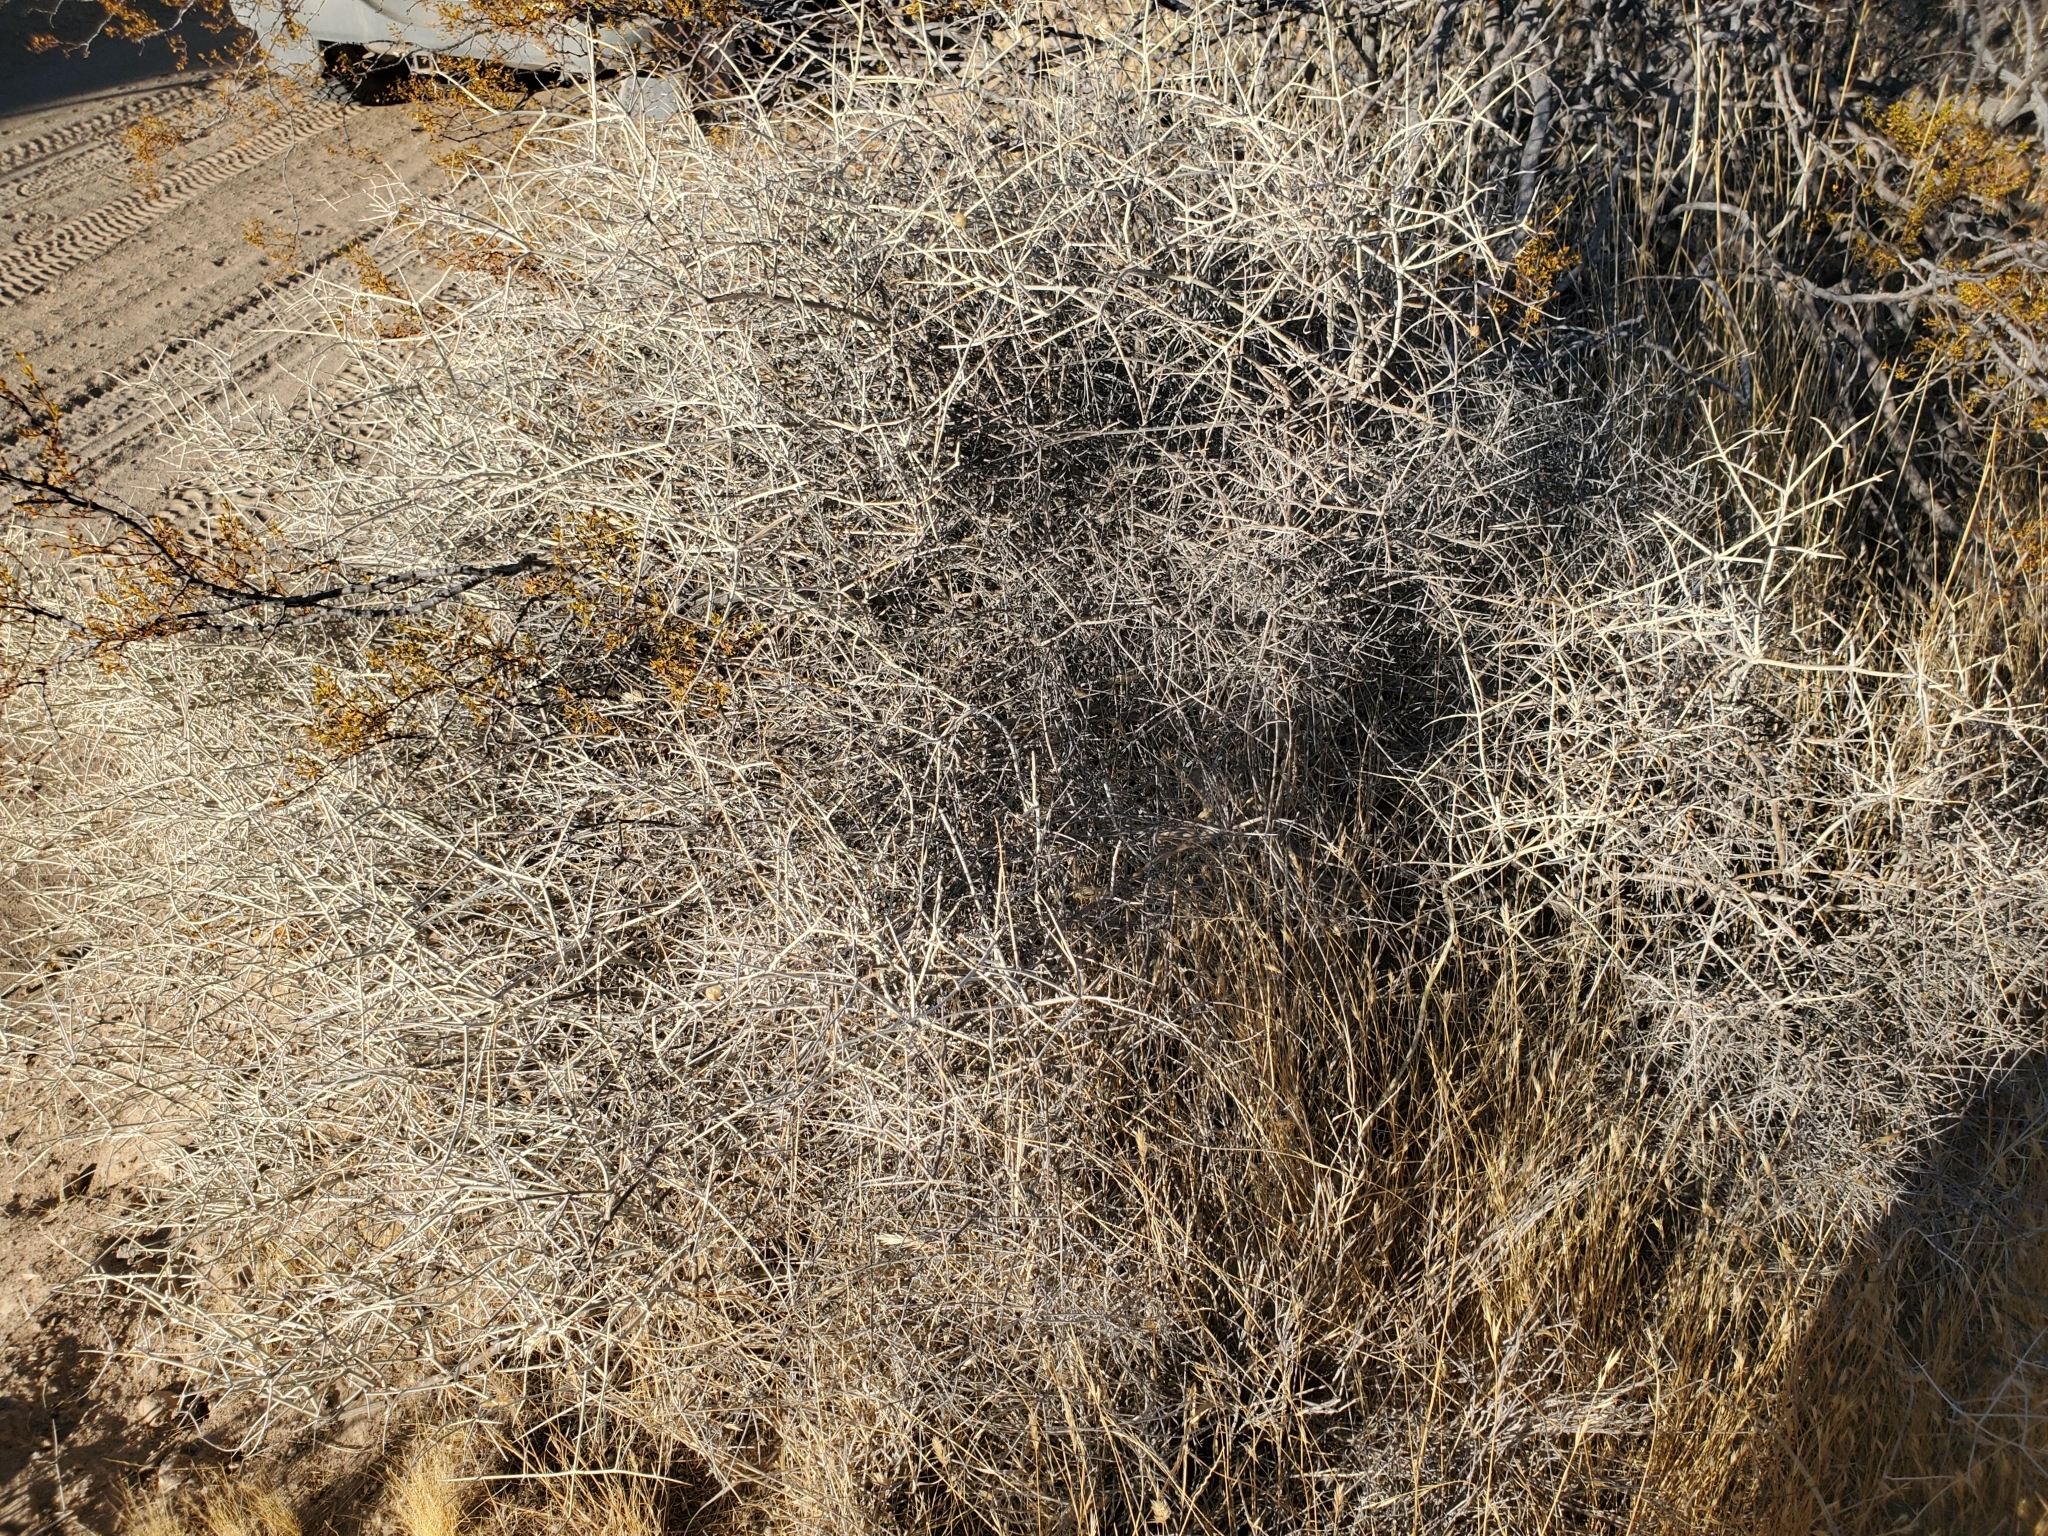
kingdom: Plantae
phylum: Tracheophyta
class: Magnoliopsida
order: Lamiales
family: Lamiaceae
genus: Scutellaria
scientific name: Scutellaria mexicana
